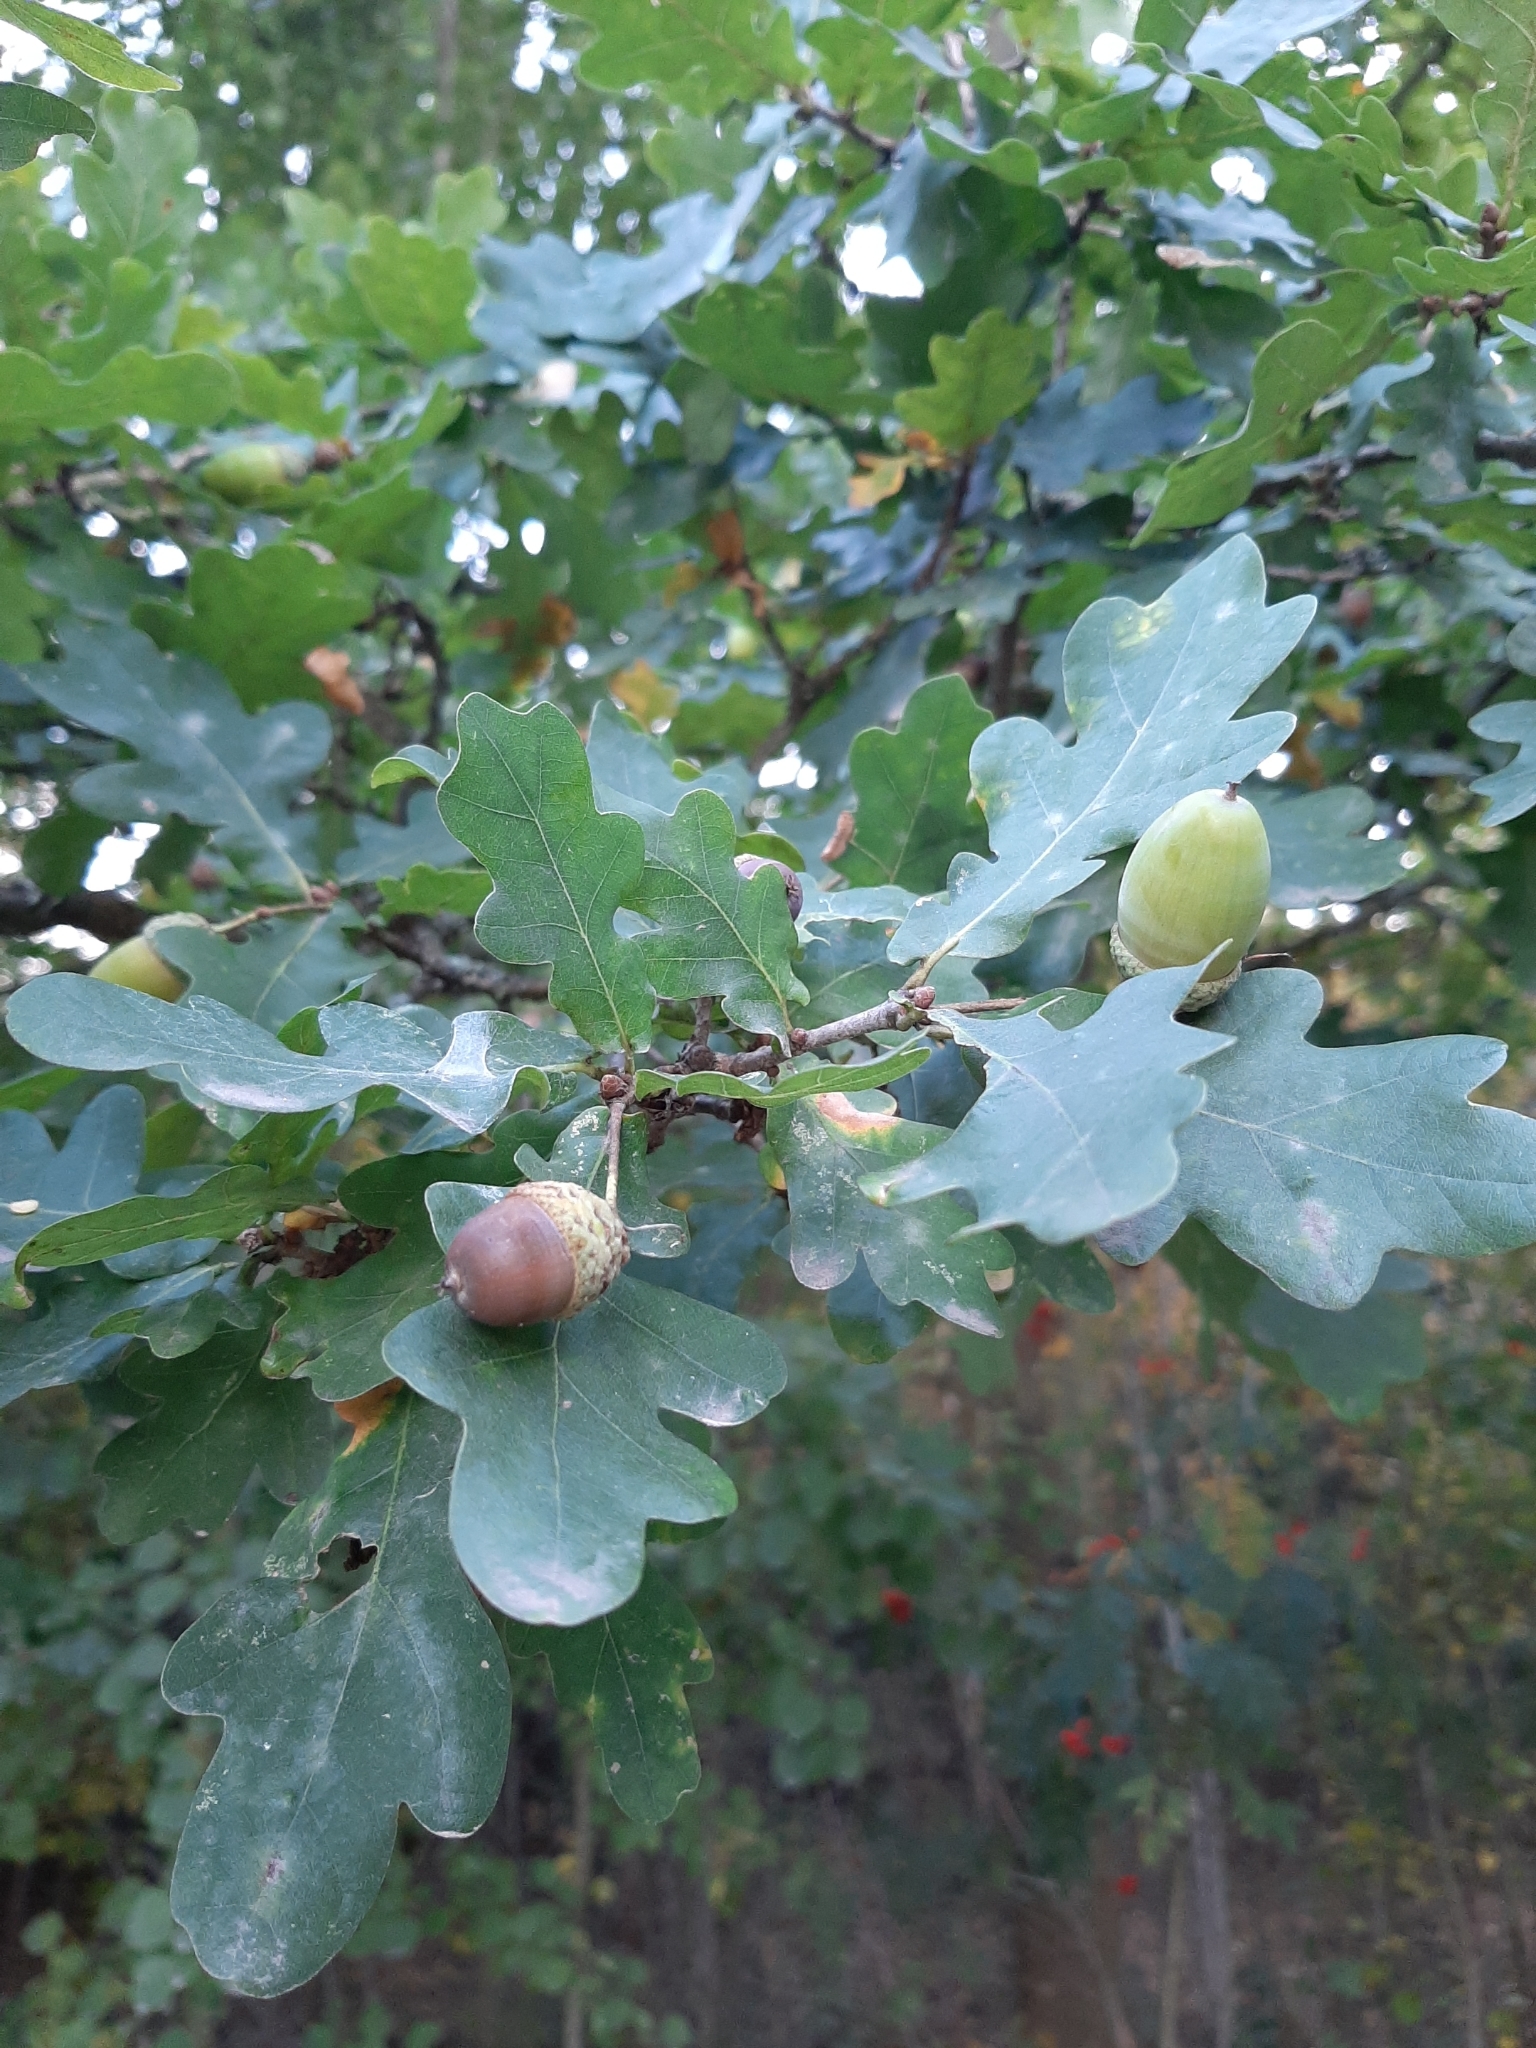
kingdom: Plantae
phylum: Tracheophyta
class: Magnoliopsida
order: Fagales
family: Fagaceae
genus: Quercus
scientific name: Quercus robur
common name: Pedunculate oak
